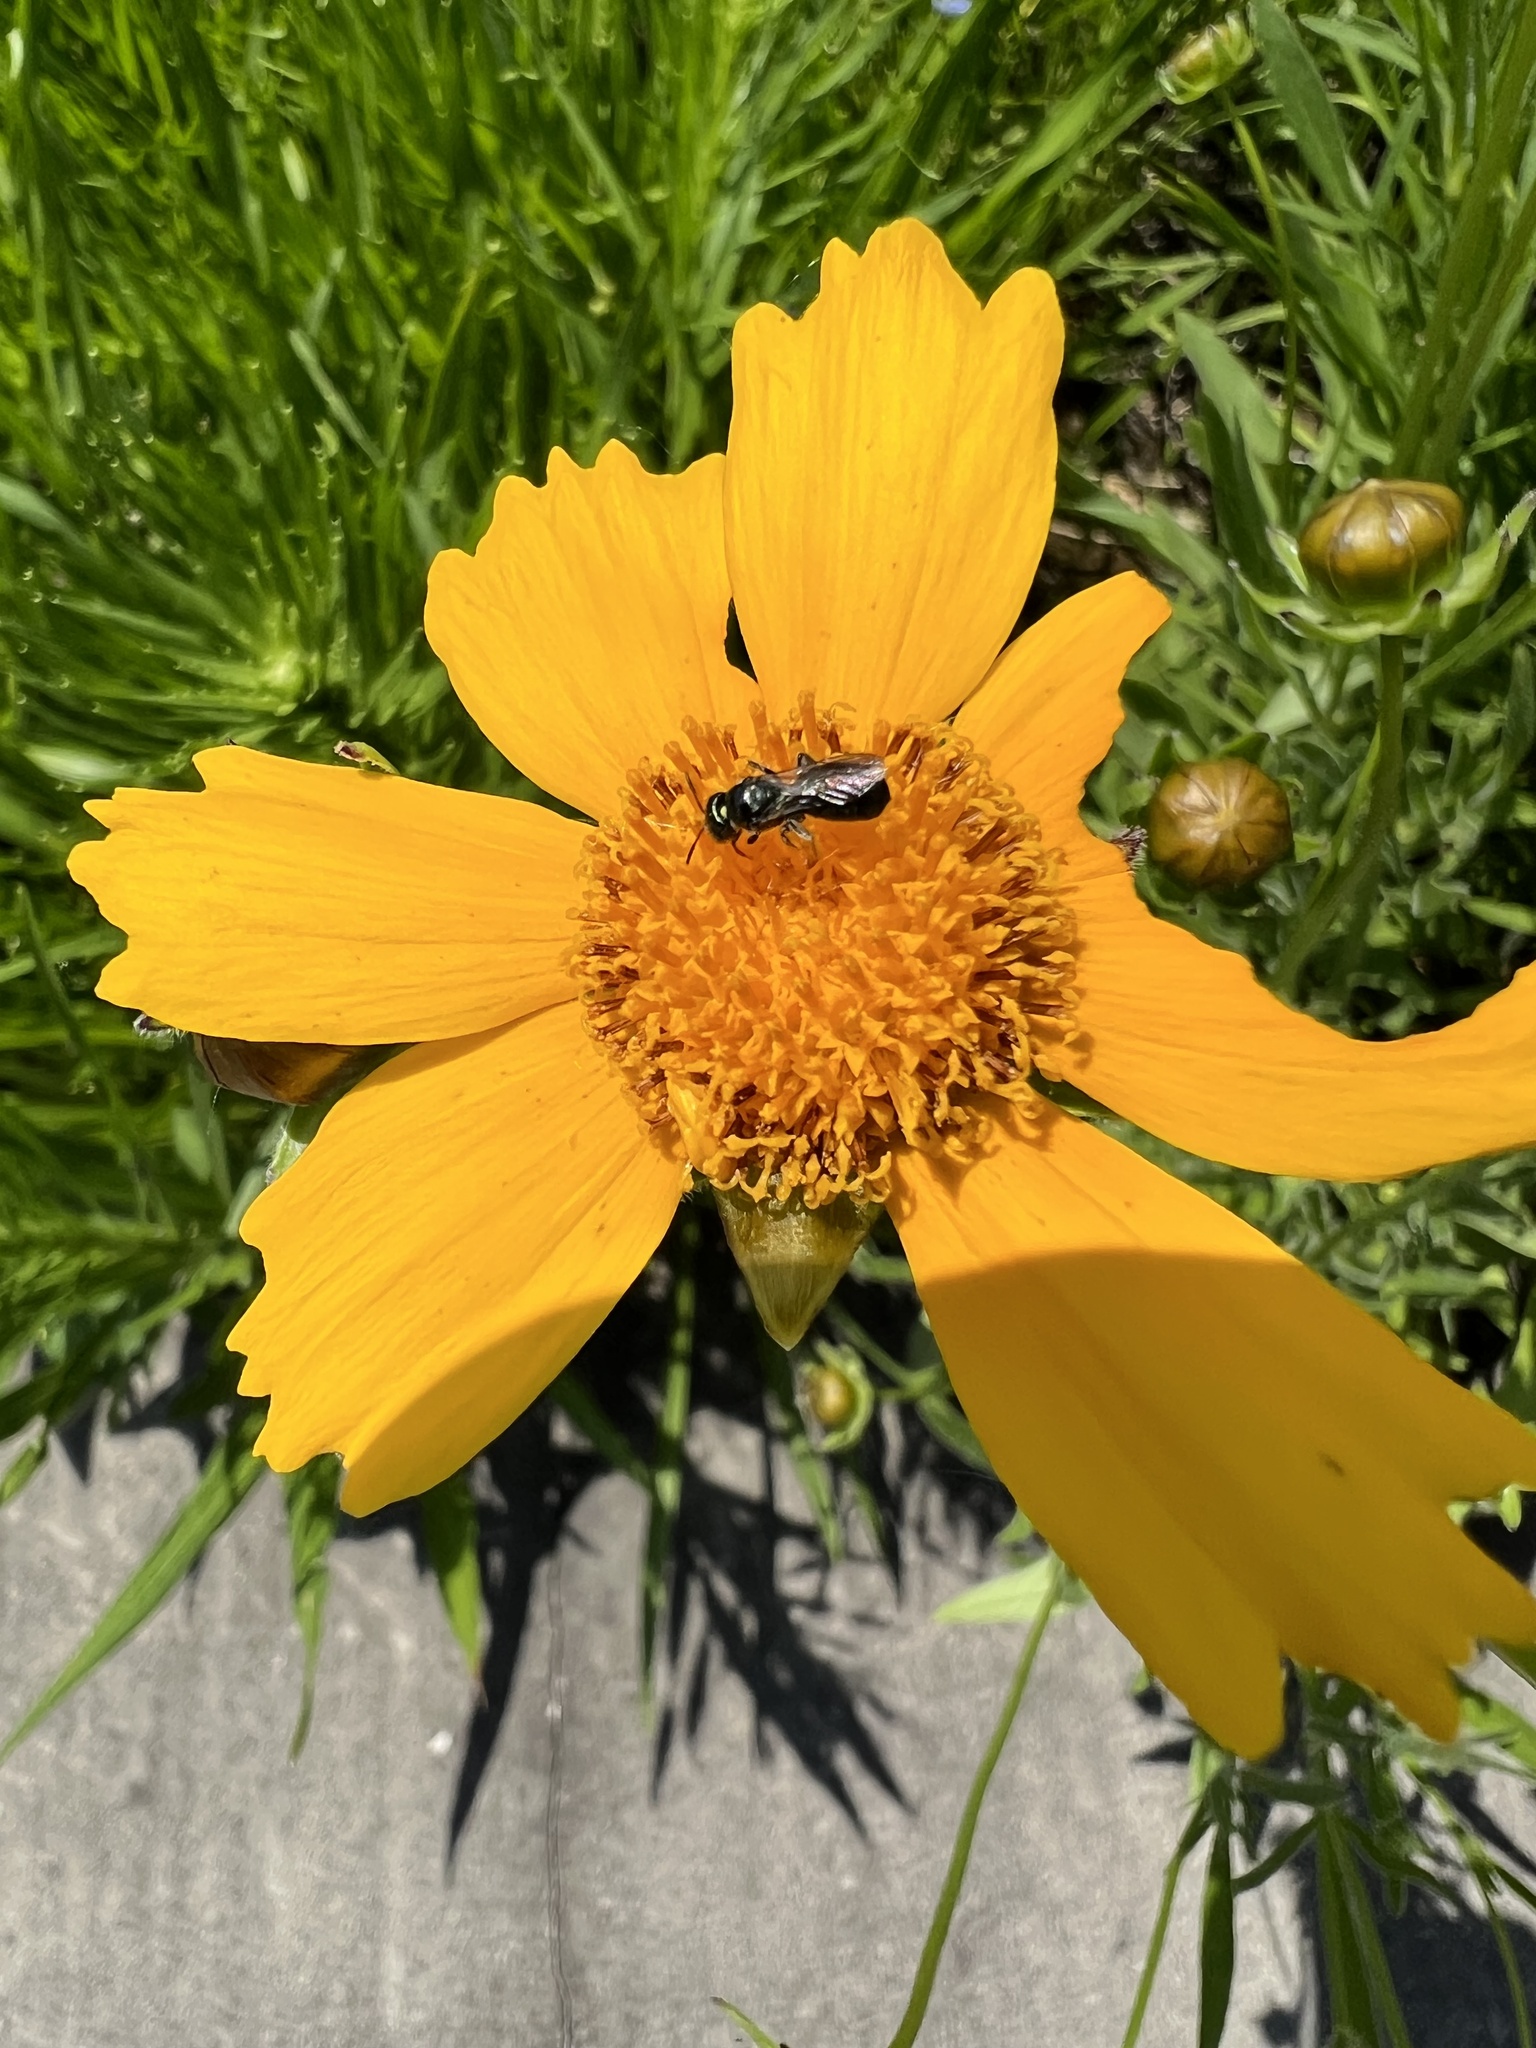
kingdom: Animalia
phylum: Arthropoda
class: Insecta
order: Hymenoptera
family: Apidae
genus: Zadontomerus
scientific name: Zadontomerus
